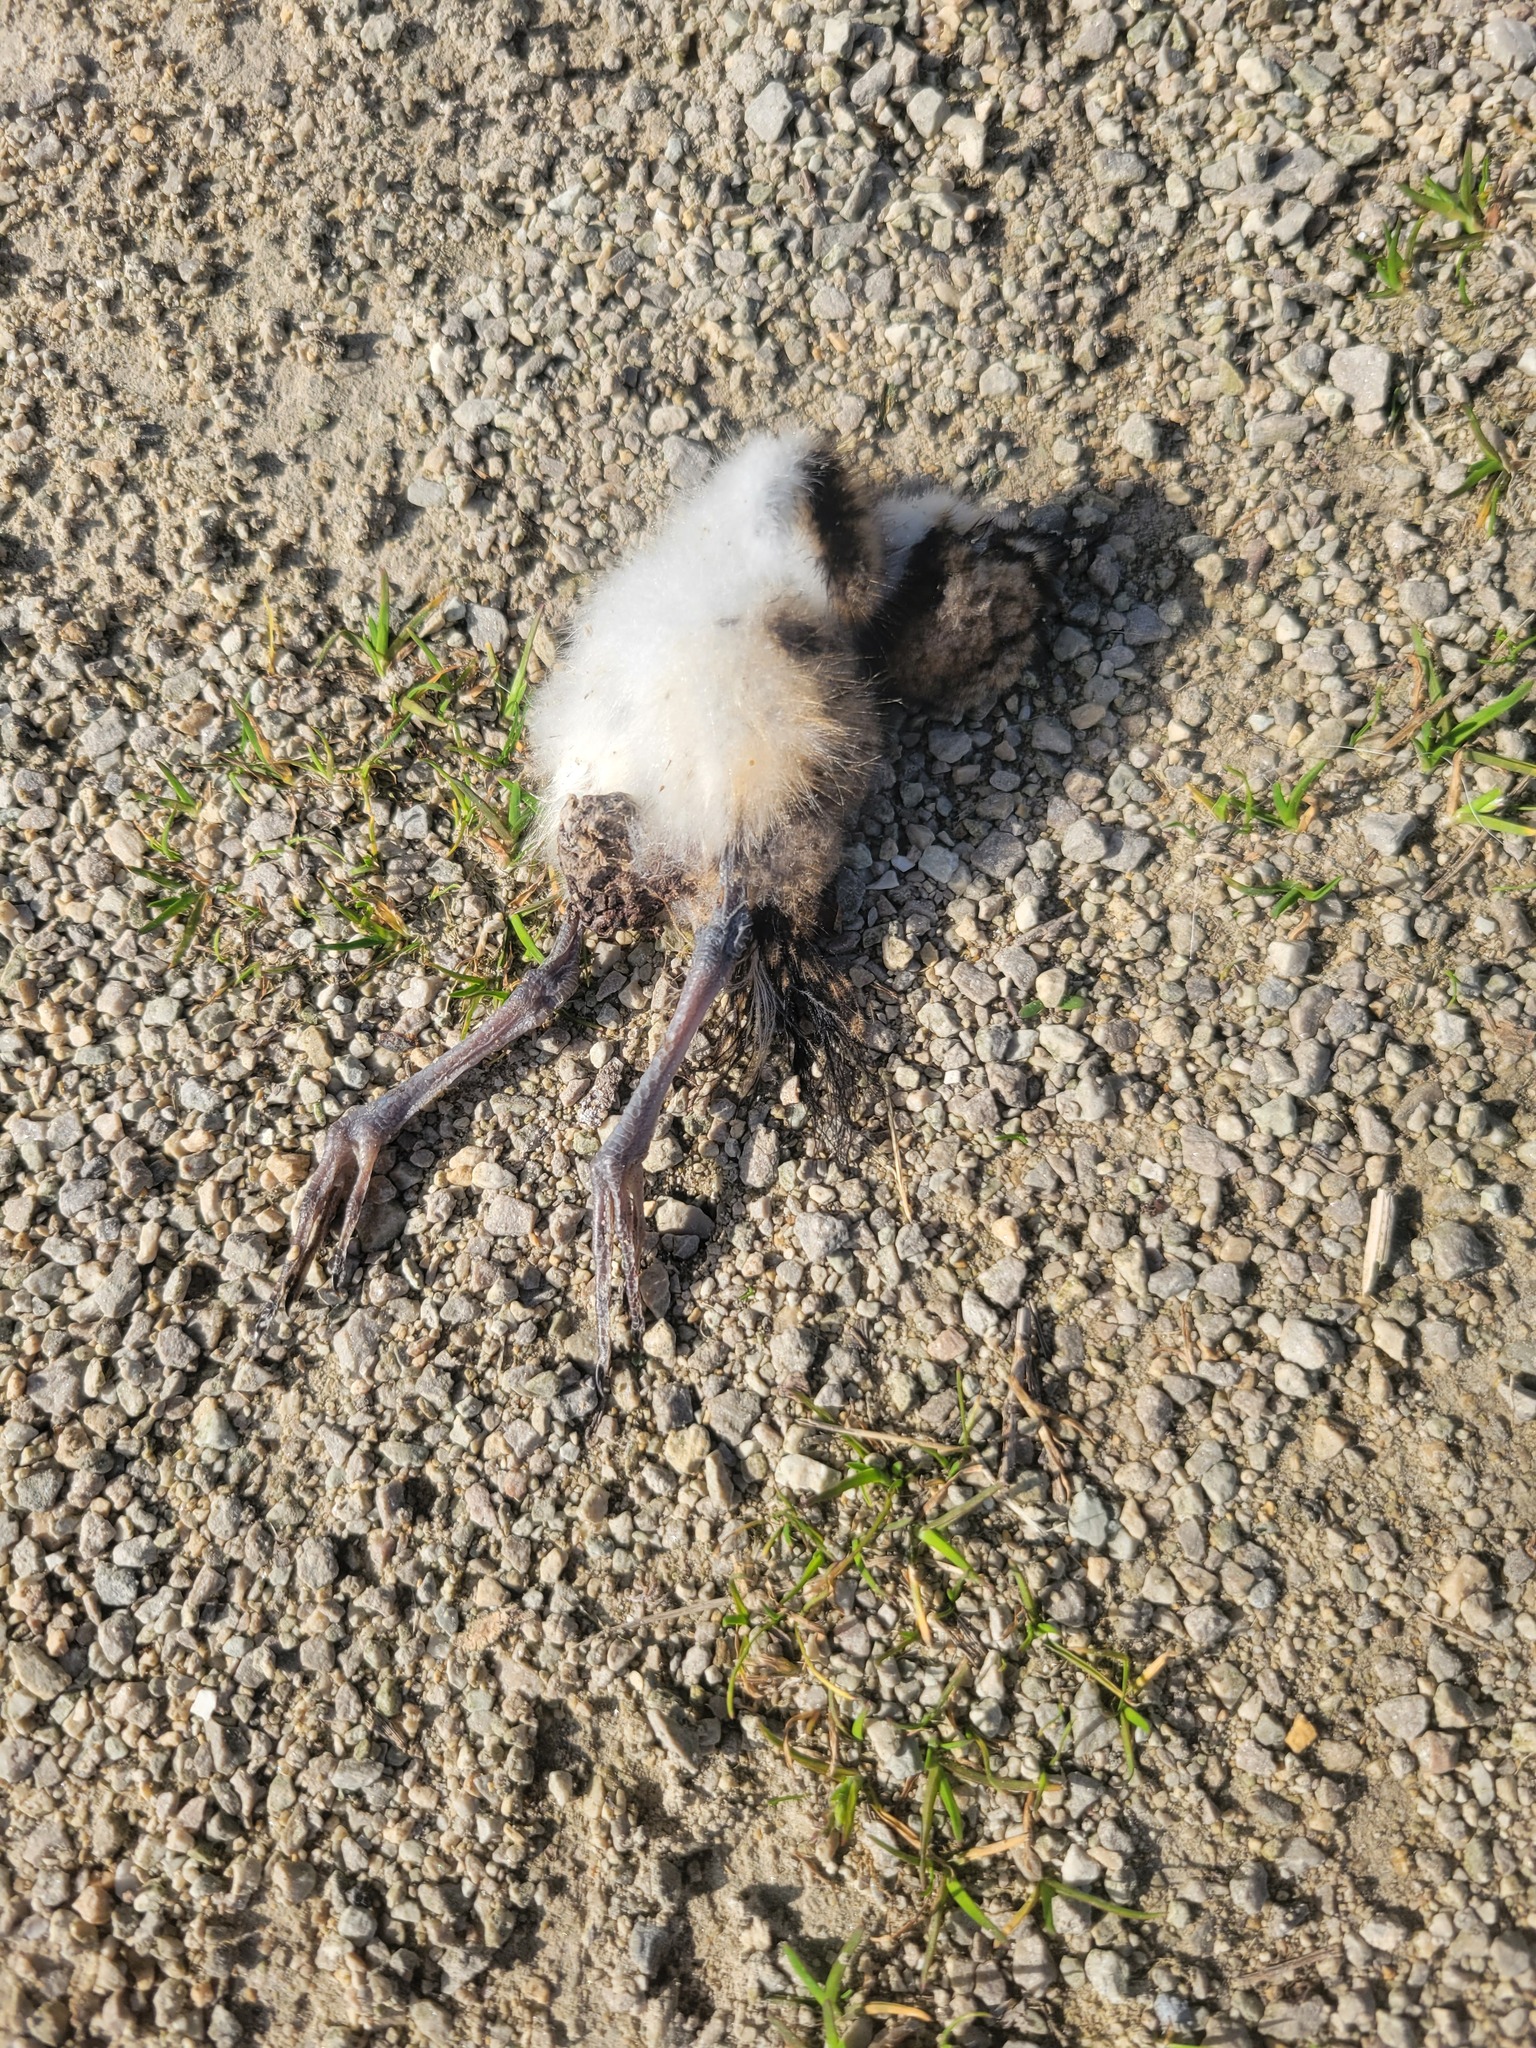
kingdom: Animalia
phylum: Chordata
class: Aves
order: Charadriiformes
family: Charadriidae
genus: Charadrius
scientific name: Charadrius vociferus
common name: Killdeer
